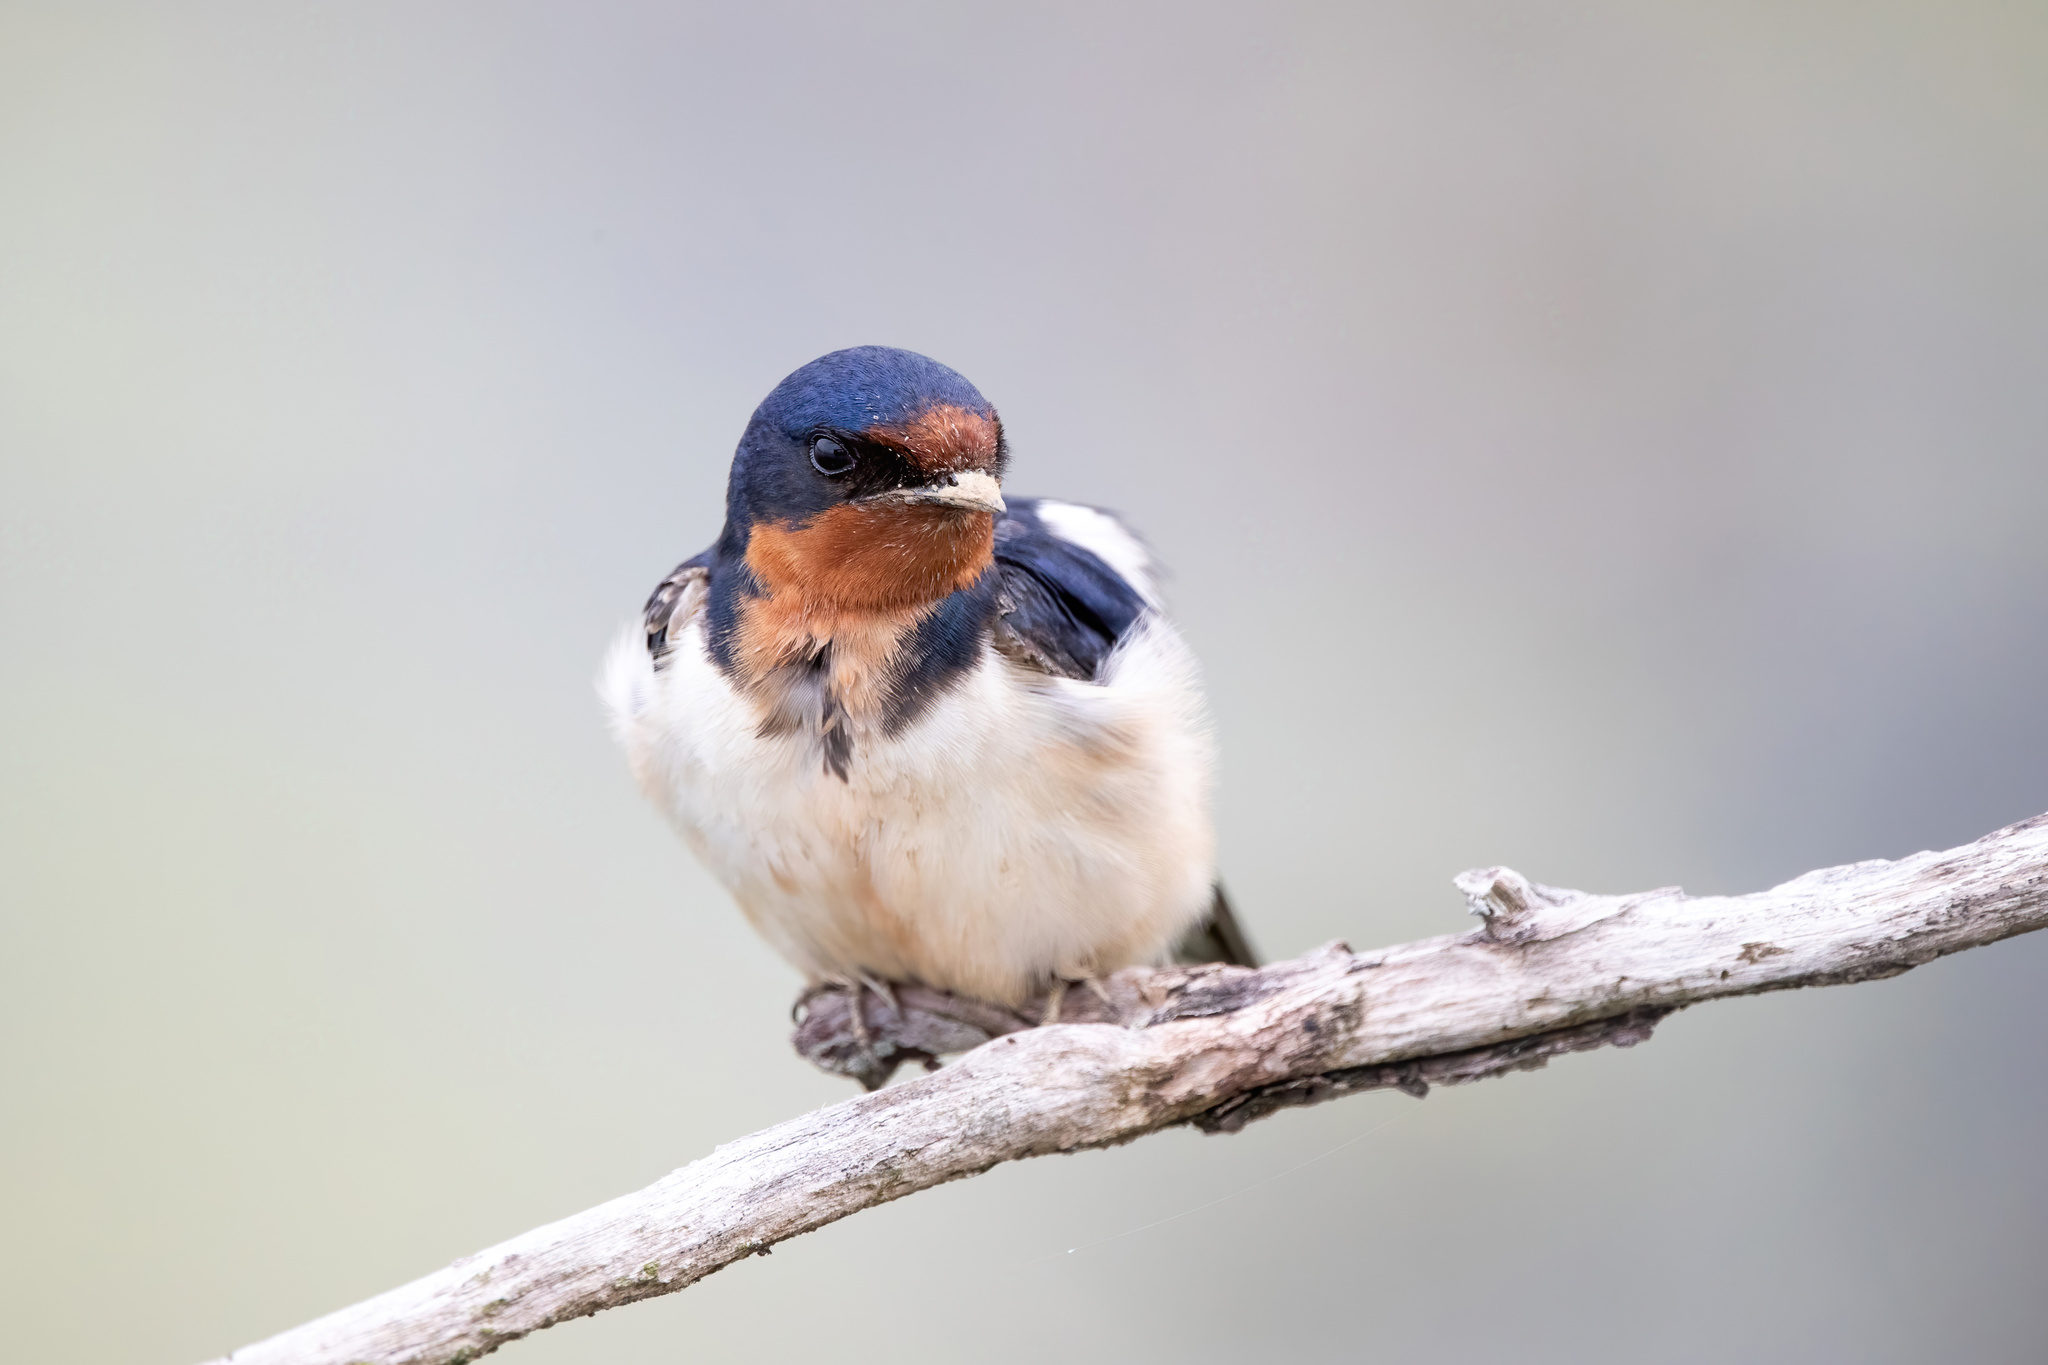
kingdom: Animalia
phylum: Chordata
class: Aves
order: Passeriformes
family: Hirundinidae
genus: Hirundo
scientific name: Hirundo rustica
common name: Barn swallow
